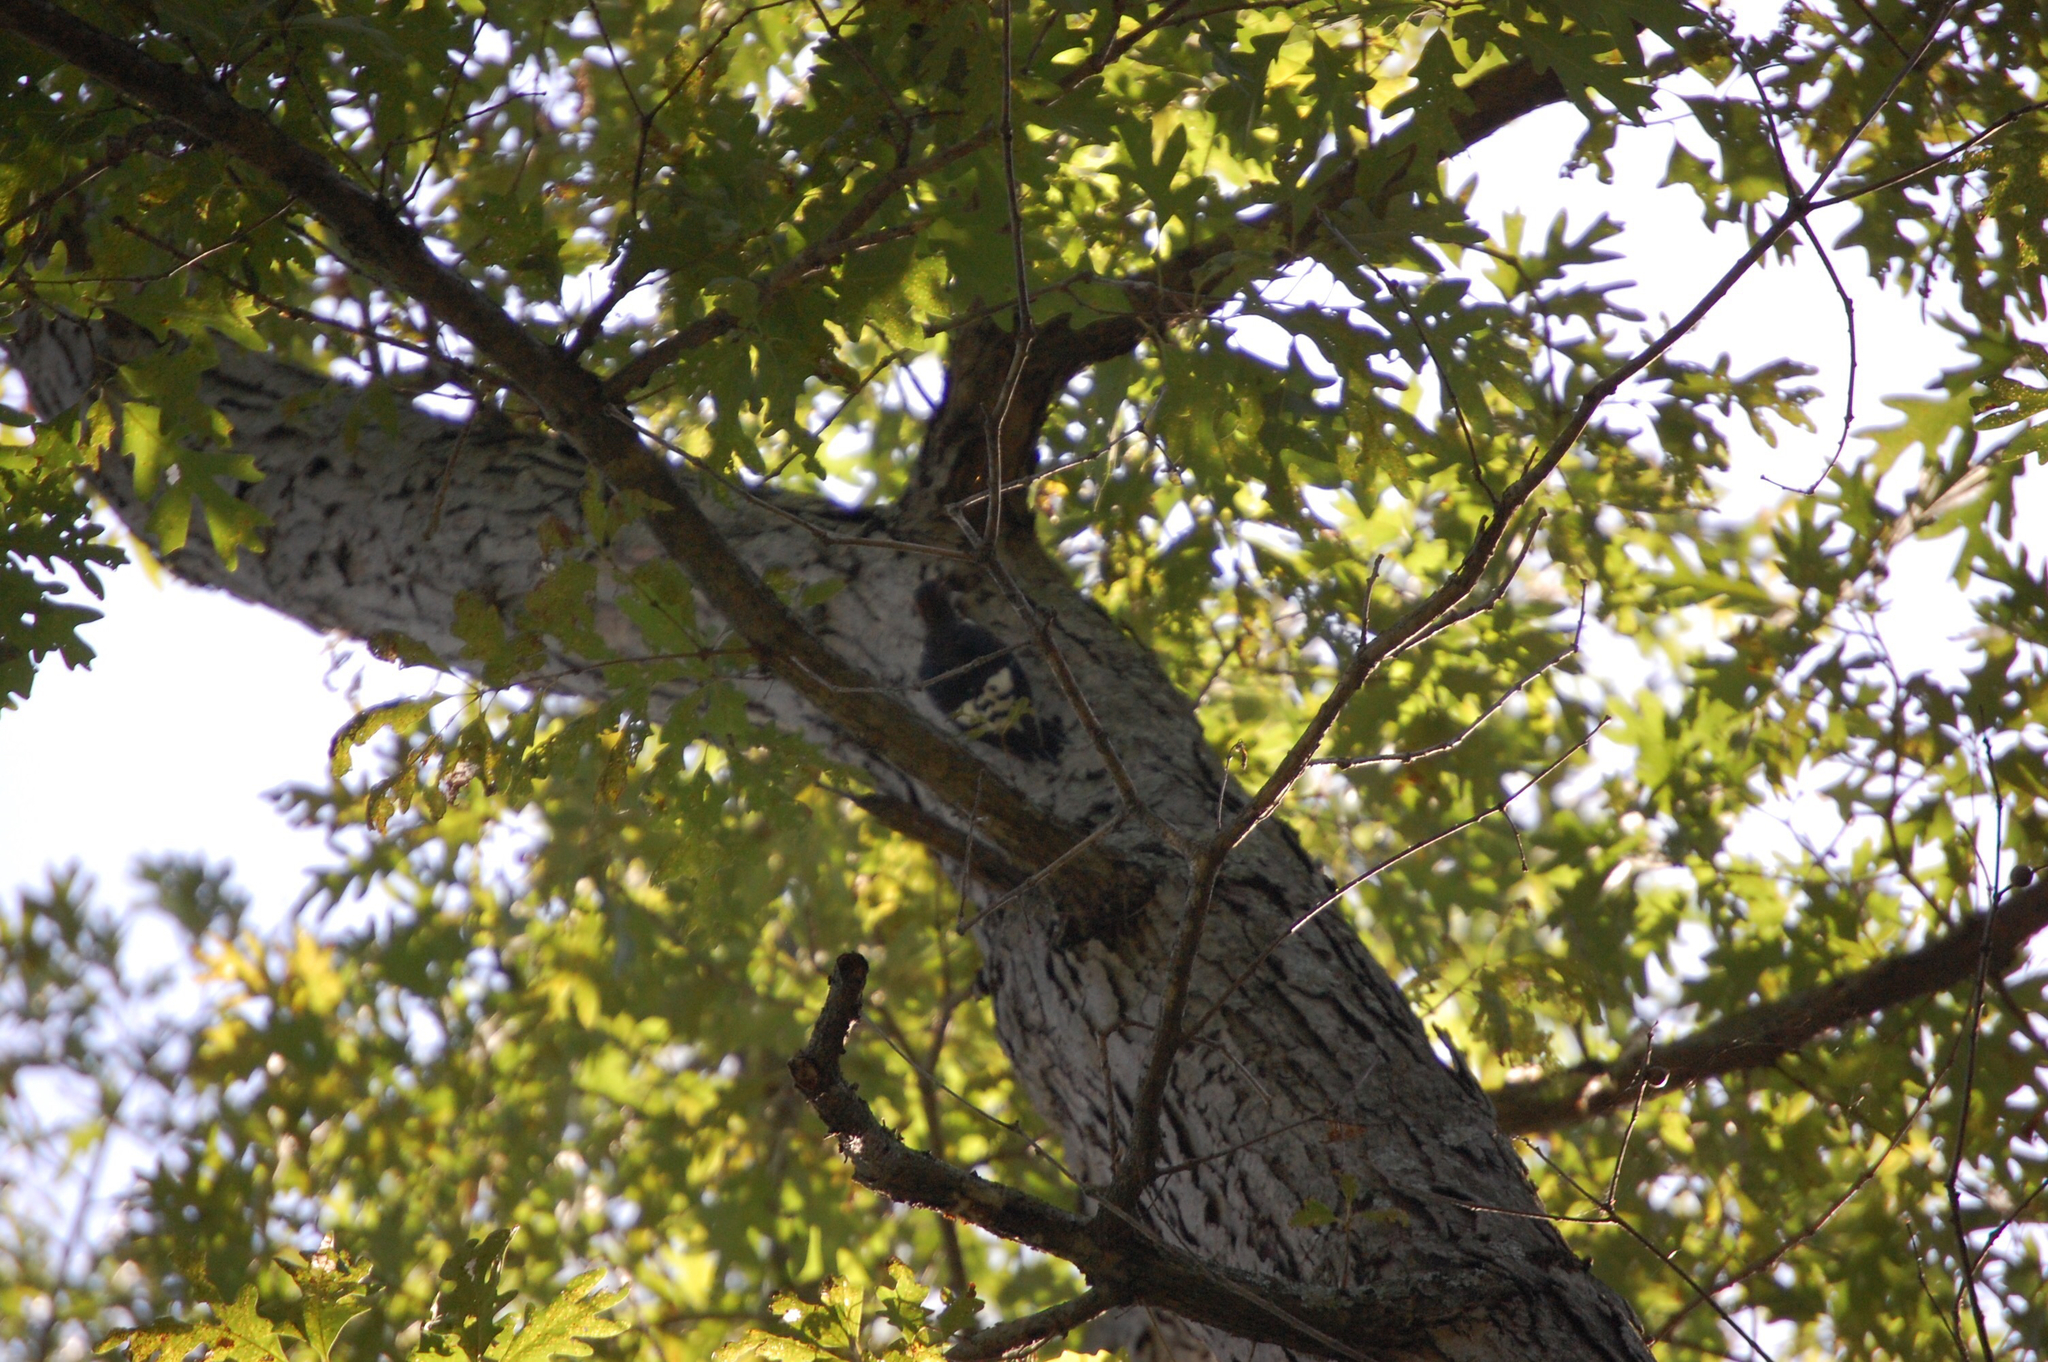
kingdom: Animalia
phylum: Chordata
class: Aves
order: Piciformes
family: Picidae
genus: Melanerpes
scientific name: Melanerpes erythrocephalus
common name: Red-headed woodpecker
